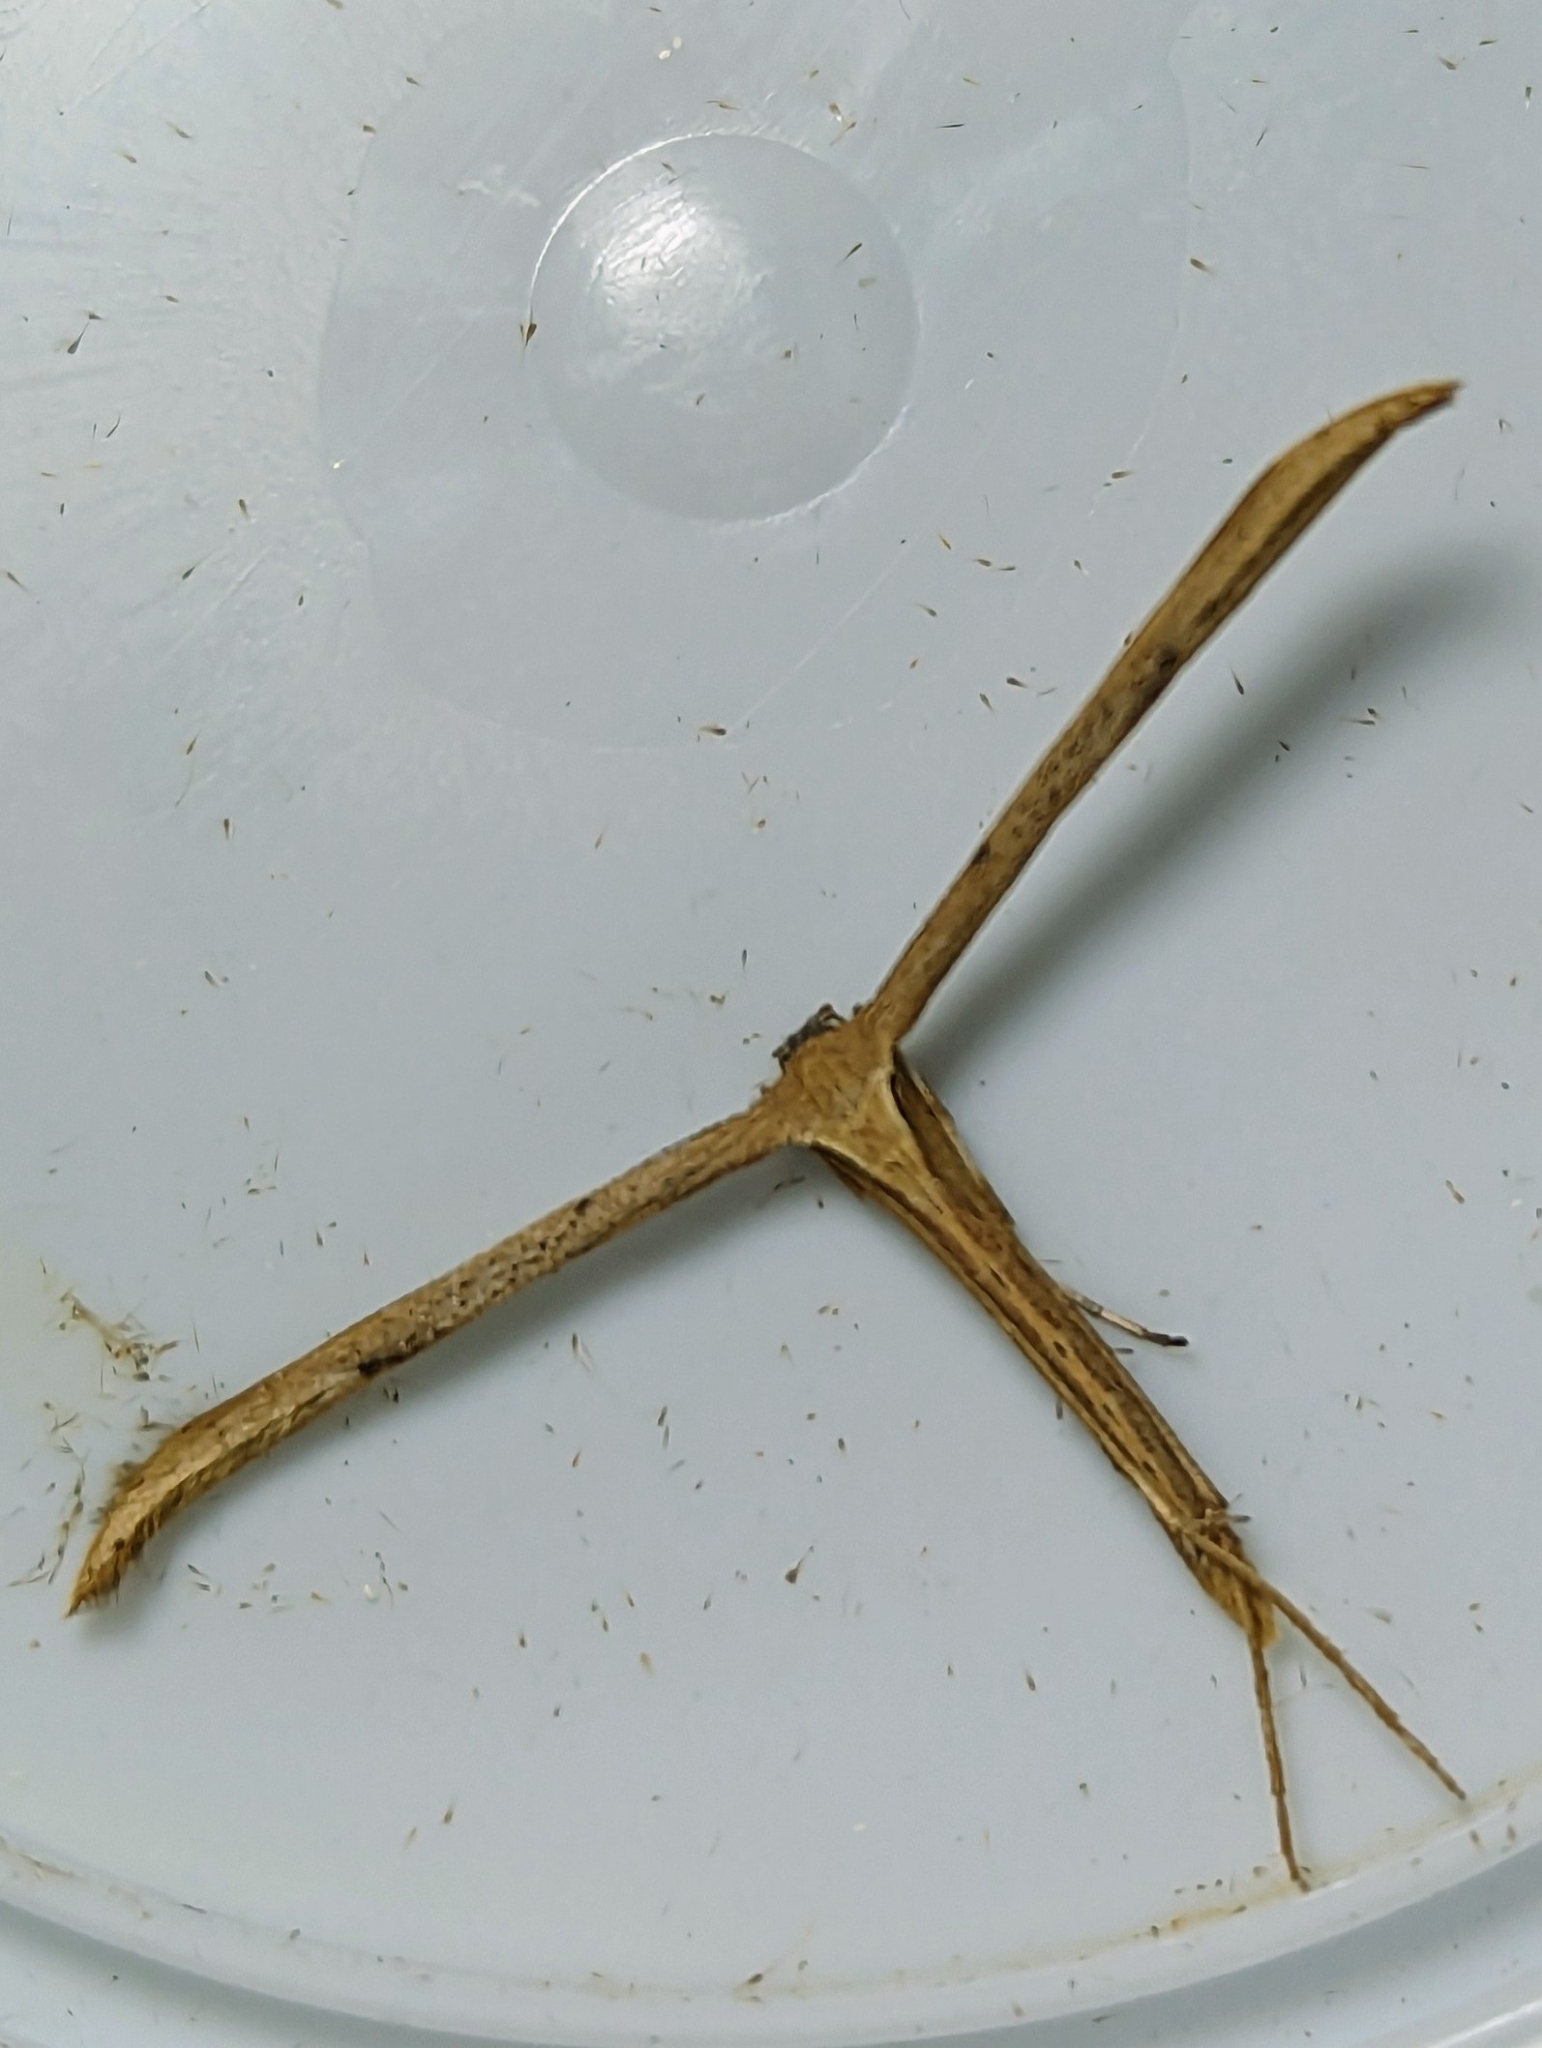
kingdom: Animalia
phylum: Arthropoda
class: Insecta
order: Lepidoptera
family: Pterophoridae
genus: Emmelina
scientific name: Emmelina monodactyla
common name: Common plume
